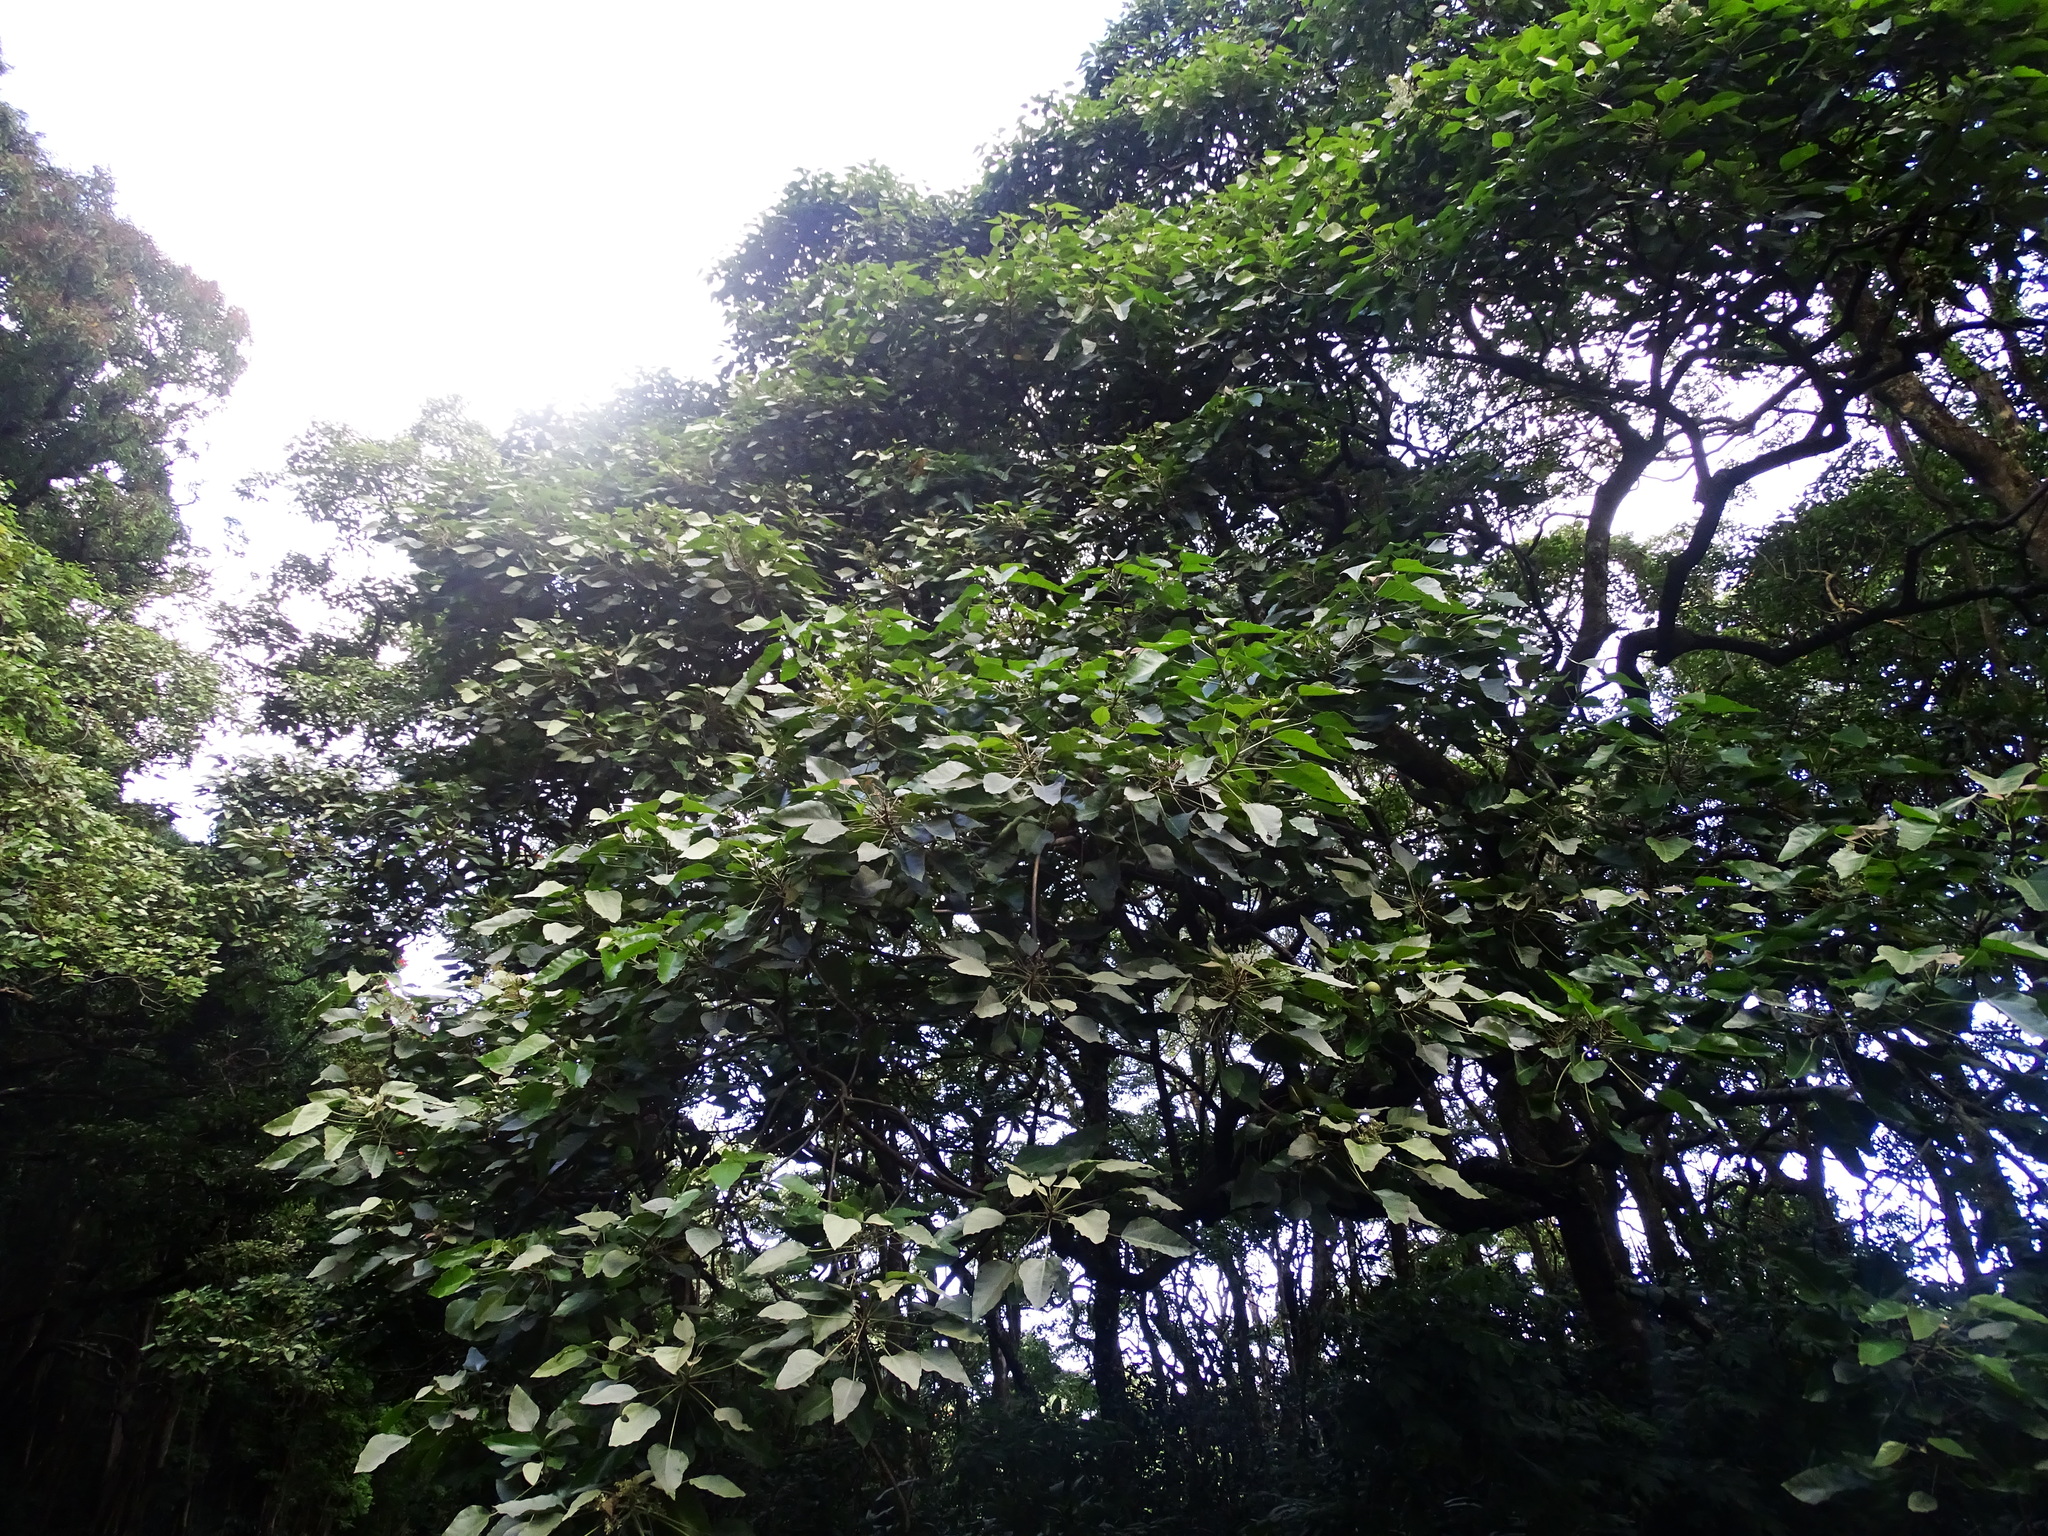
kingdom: Plantae
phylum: Tracheophyta
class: Magnoliopsida
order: Malpighiales
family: Euphorbiaceae
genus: Aleurites
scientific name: Aleurites moluccanus
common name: Candlenut tree
